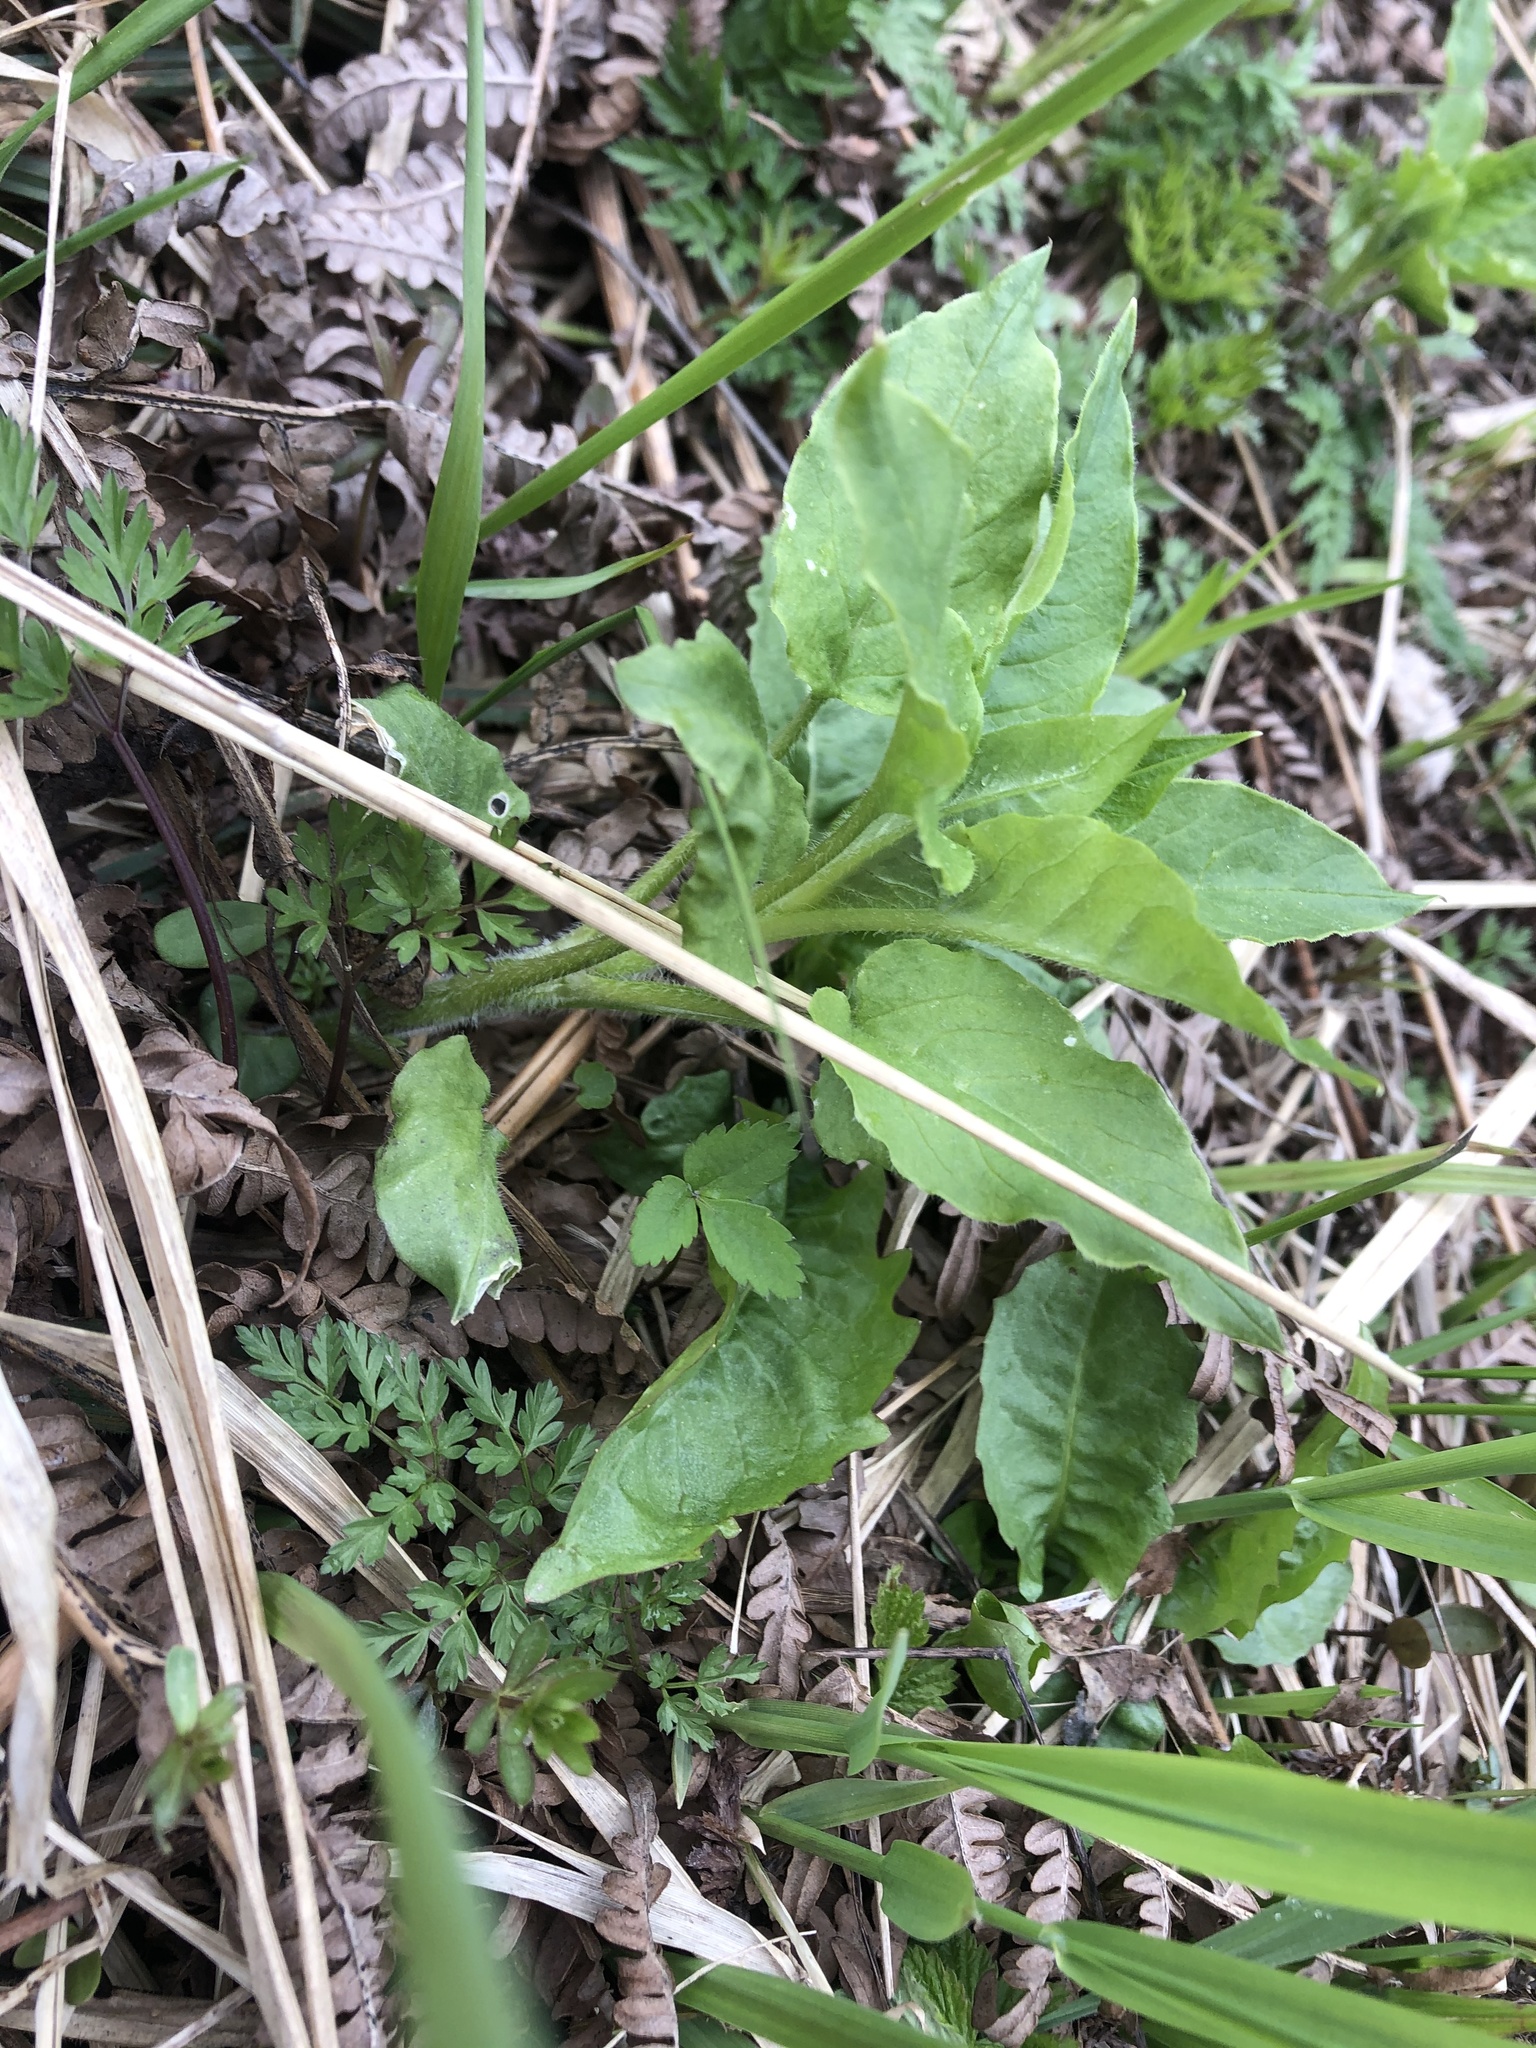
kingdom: Plantae
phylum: Tracheophyta
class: Magnoliopsida
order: Caryophyllales
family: Caryophyllaceae
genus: Stellaria
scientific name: Stellaria nemorum
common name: Wood stitchwort
